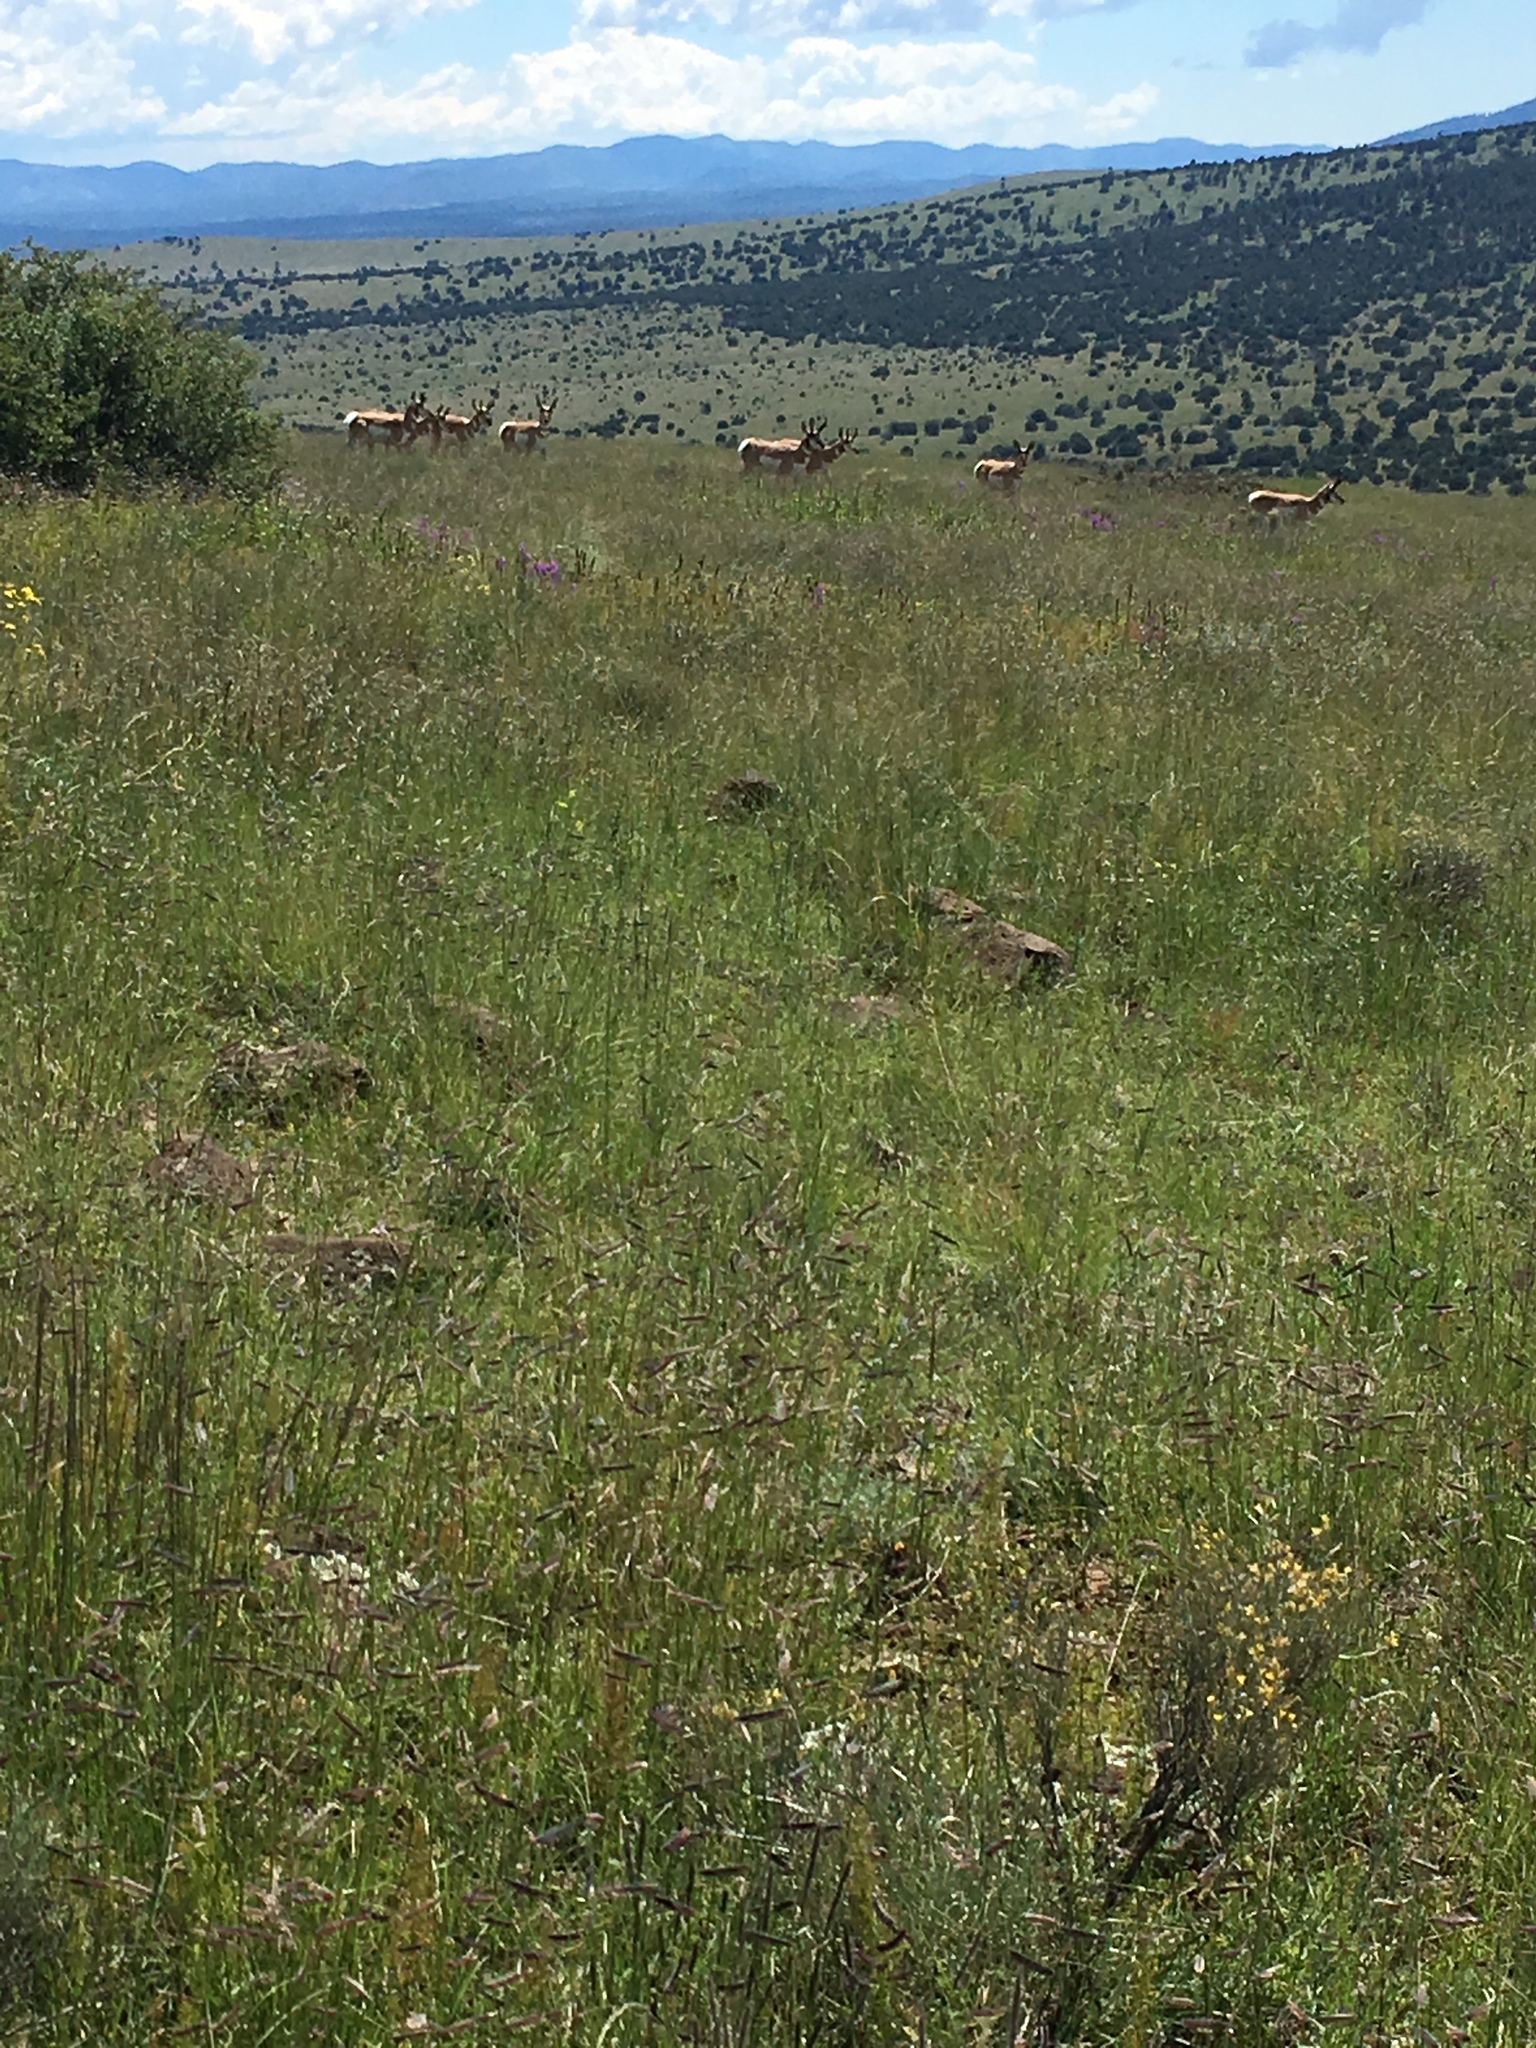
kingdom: Animalia
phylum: Chordata
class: Mammalia
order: Artiodactyla
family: Antilocapridae
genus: Antilocapra
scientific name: Antilocapra americana
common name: Pronghorn
